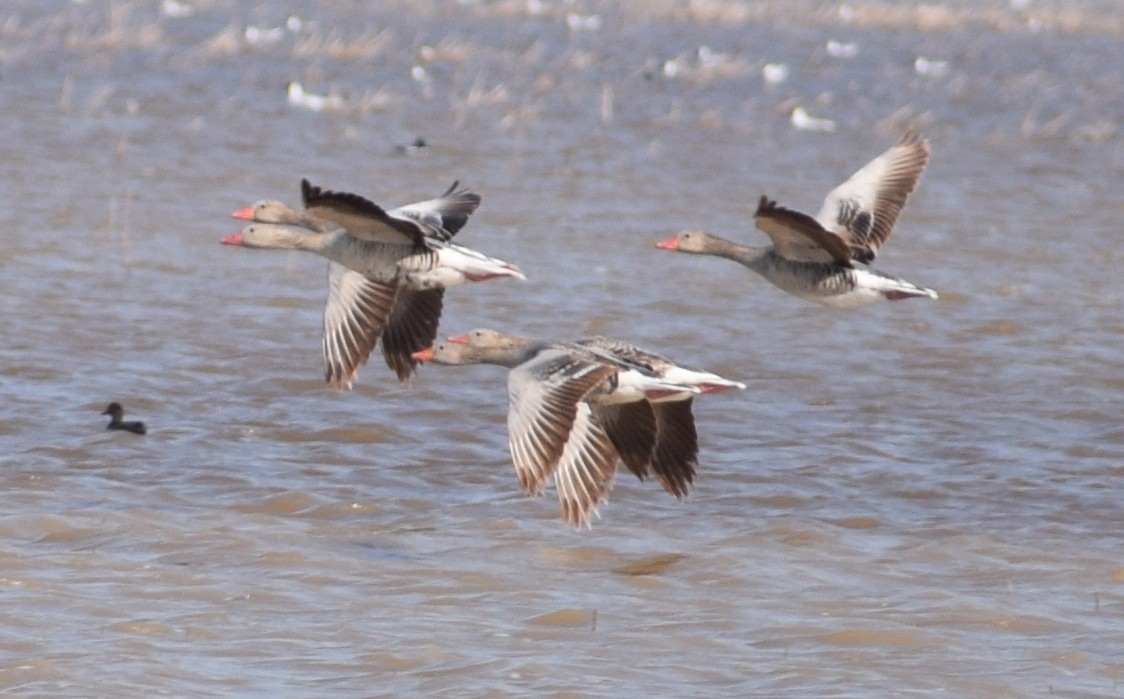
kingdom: Animalia
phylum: Chordata
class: Aves
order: Anseriformes
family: Anatidae
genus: Anser
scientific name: Anser anser
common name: Greylag goose
